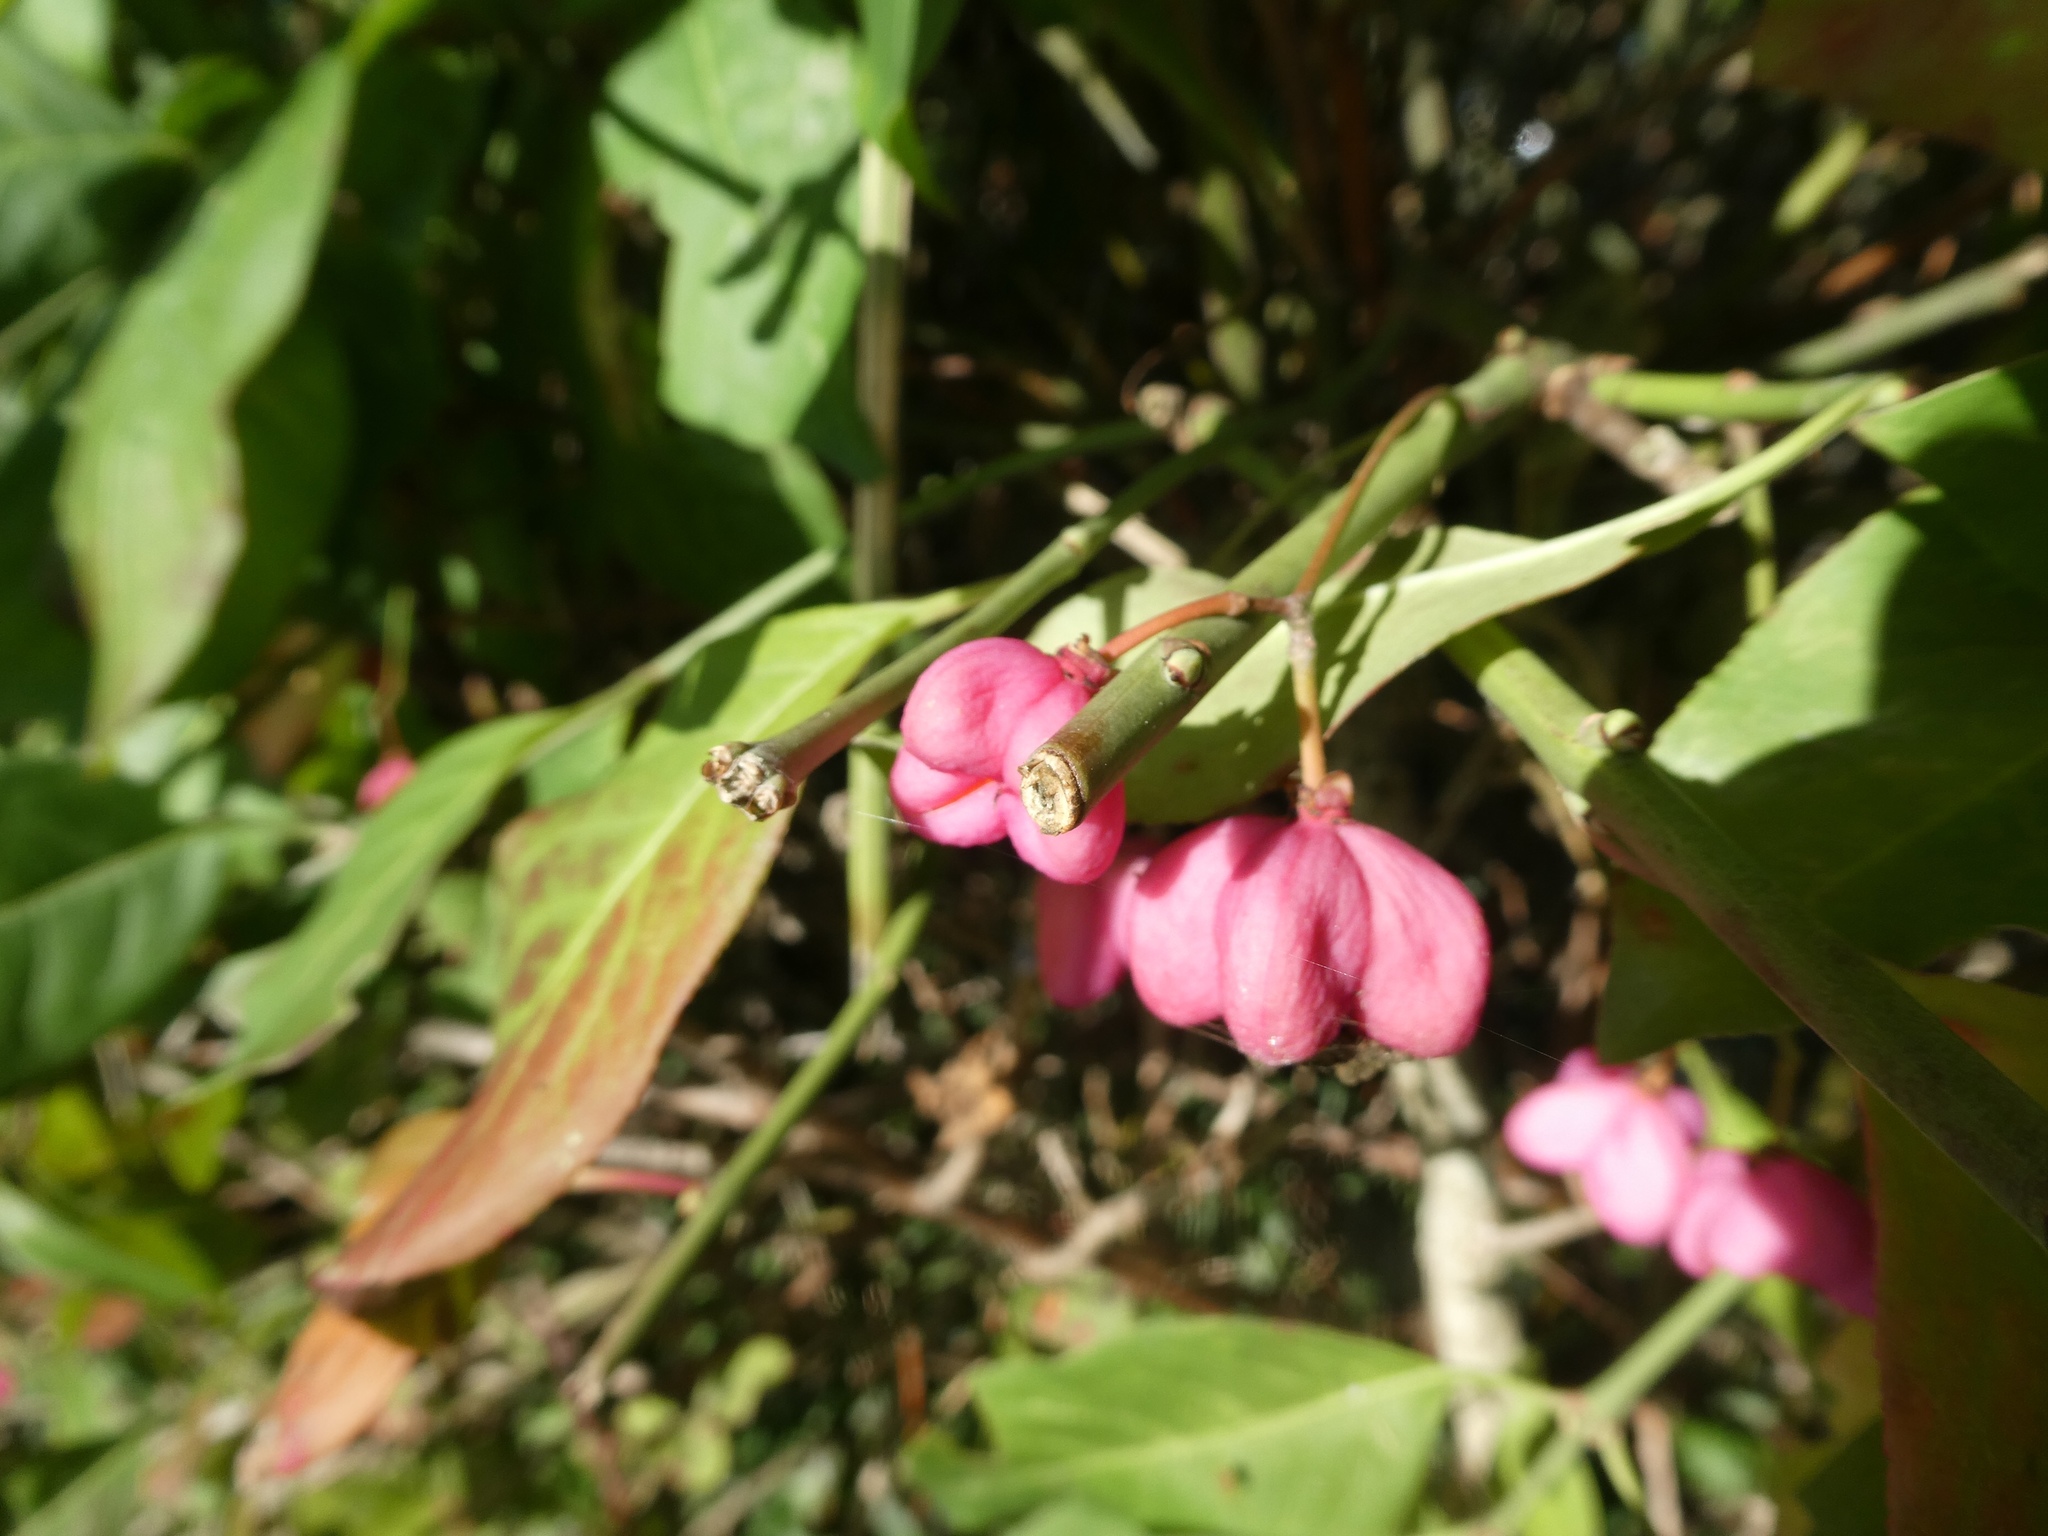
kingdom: Plantae
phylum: Tracheophyta
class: Magnoliopsida
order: Celastrales
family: Celastraceae
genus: Euonymus
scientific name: Euonymus europaeus
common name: Spindle
